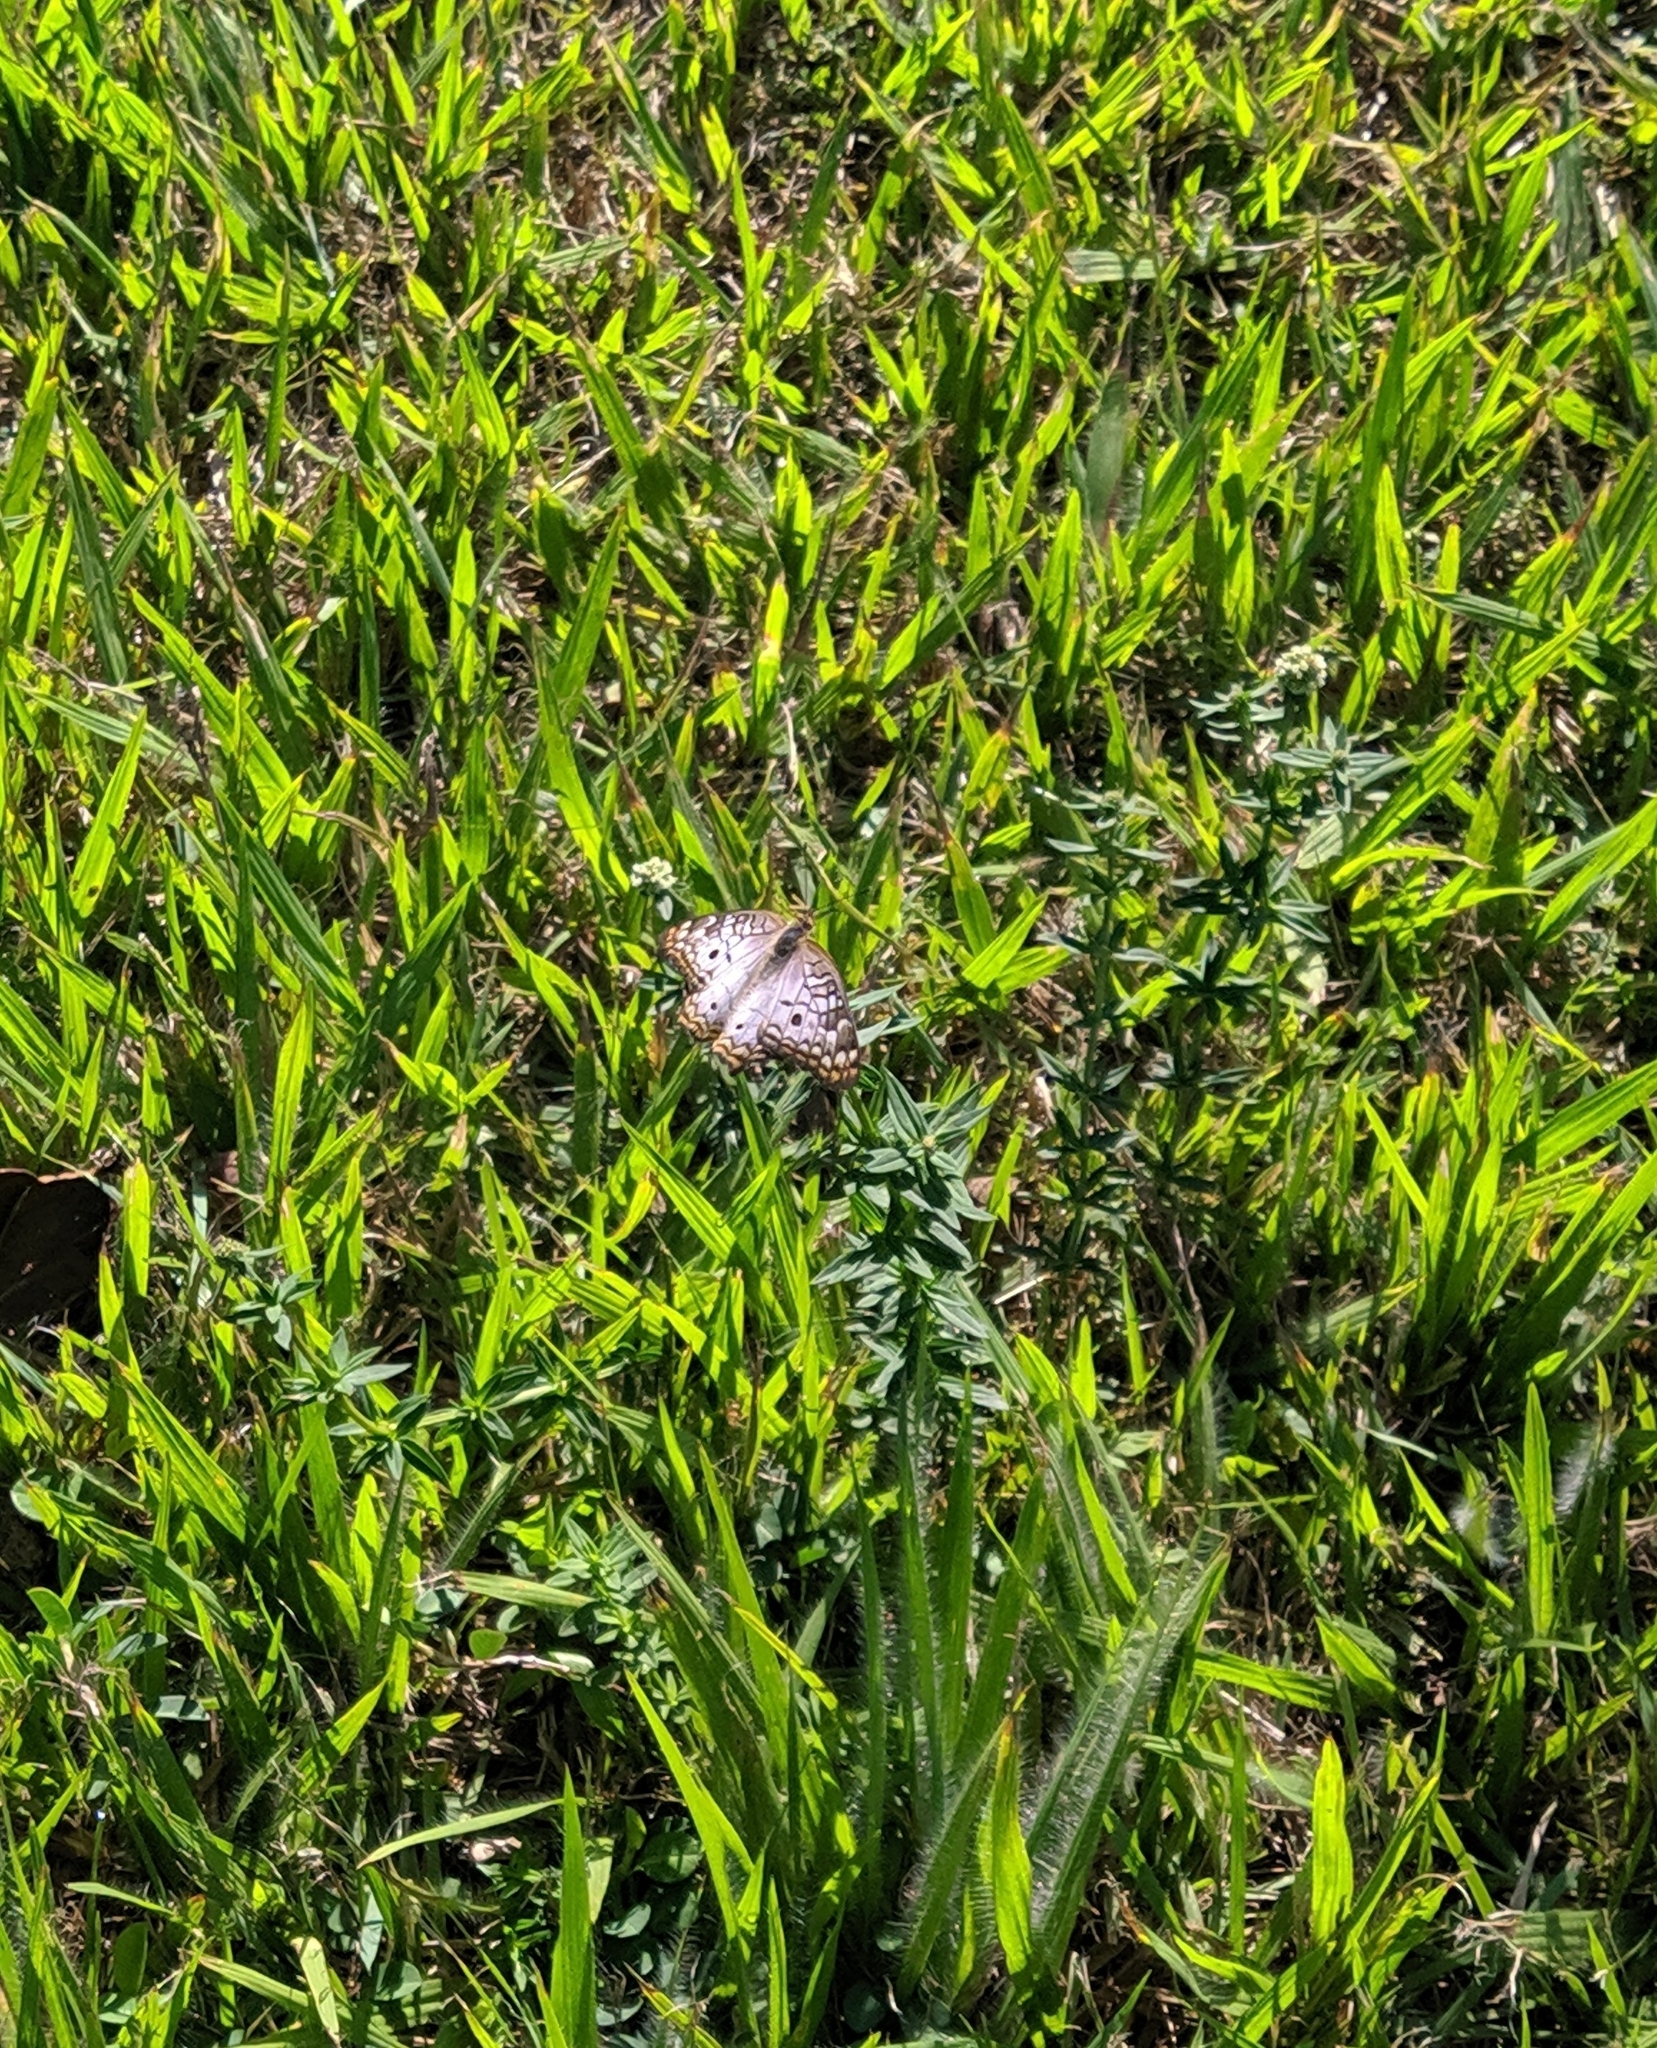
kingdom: Animalia
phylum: Arthropoda
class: Insecta
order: Lepidoptera
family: Nymphalidae
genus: Anartia
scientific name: Anartia jatrophae
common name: White peacock
